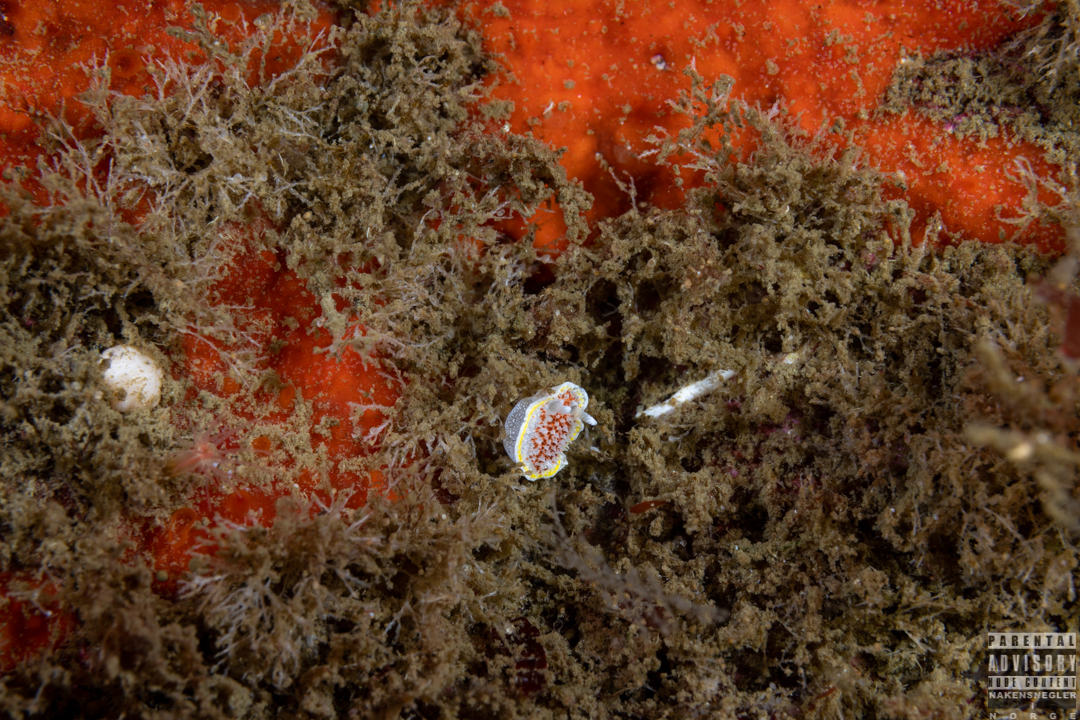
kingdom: Animalia
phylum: Mollusca
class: Gastropoda
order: Nudibranchia
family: Calycidorididae
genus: Diaphorodoris
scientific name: Diaphorodoris luteocincta
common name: Fried egg nudibranch
